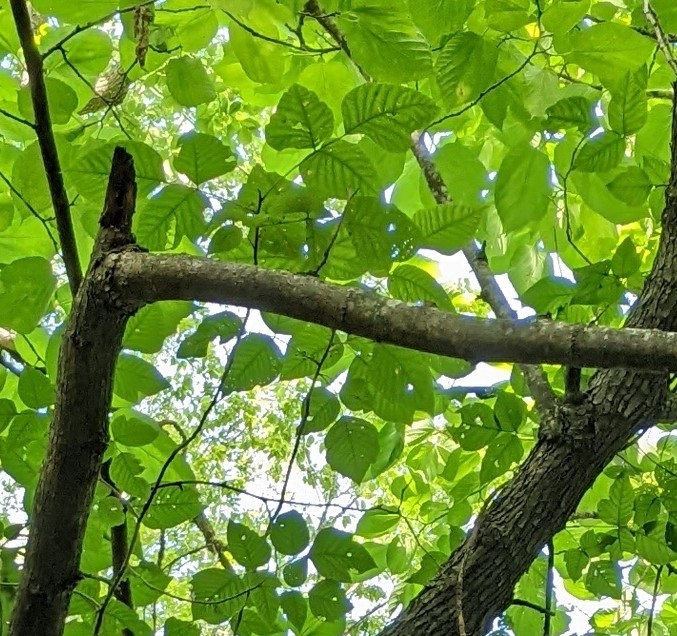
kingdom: Plantae
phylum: Tracheophyta
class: Magnoliopsida
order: Sapindales
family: Anacardiaceae
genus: Toxicodendron
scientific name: Toxicodendron radicans
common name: Poison ivy
